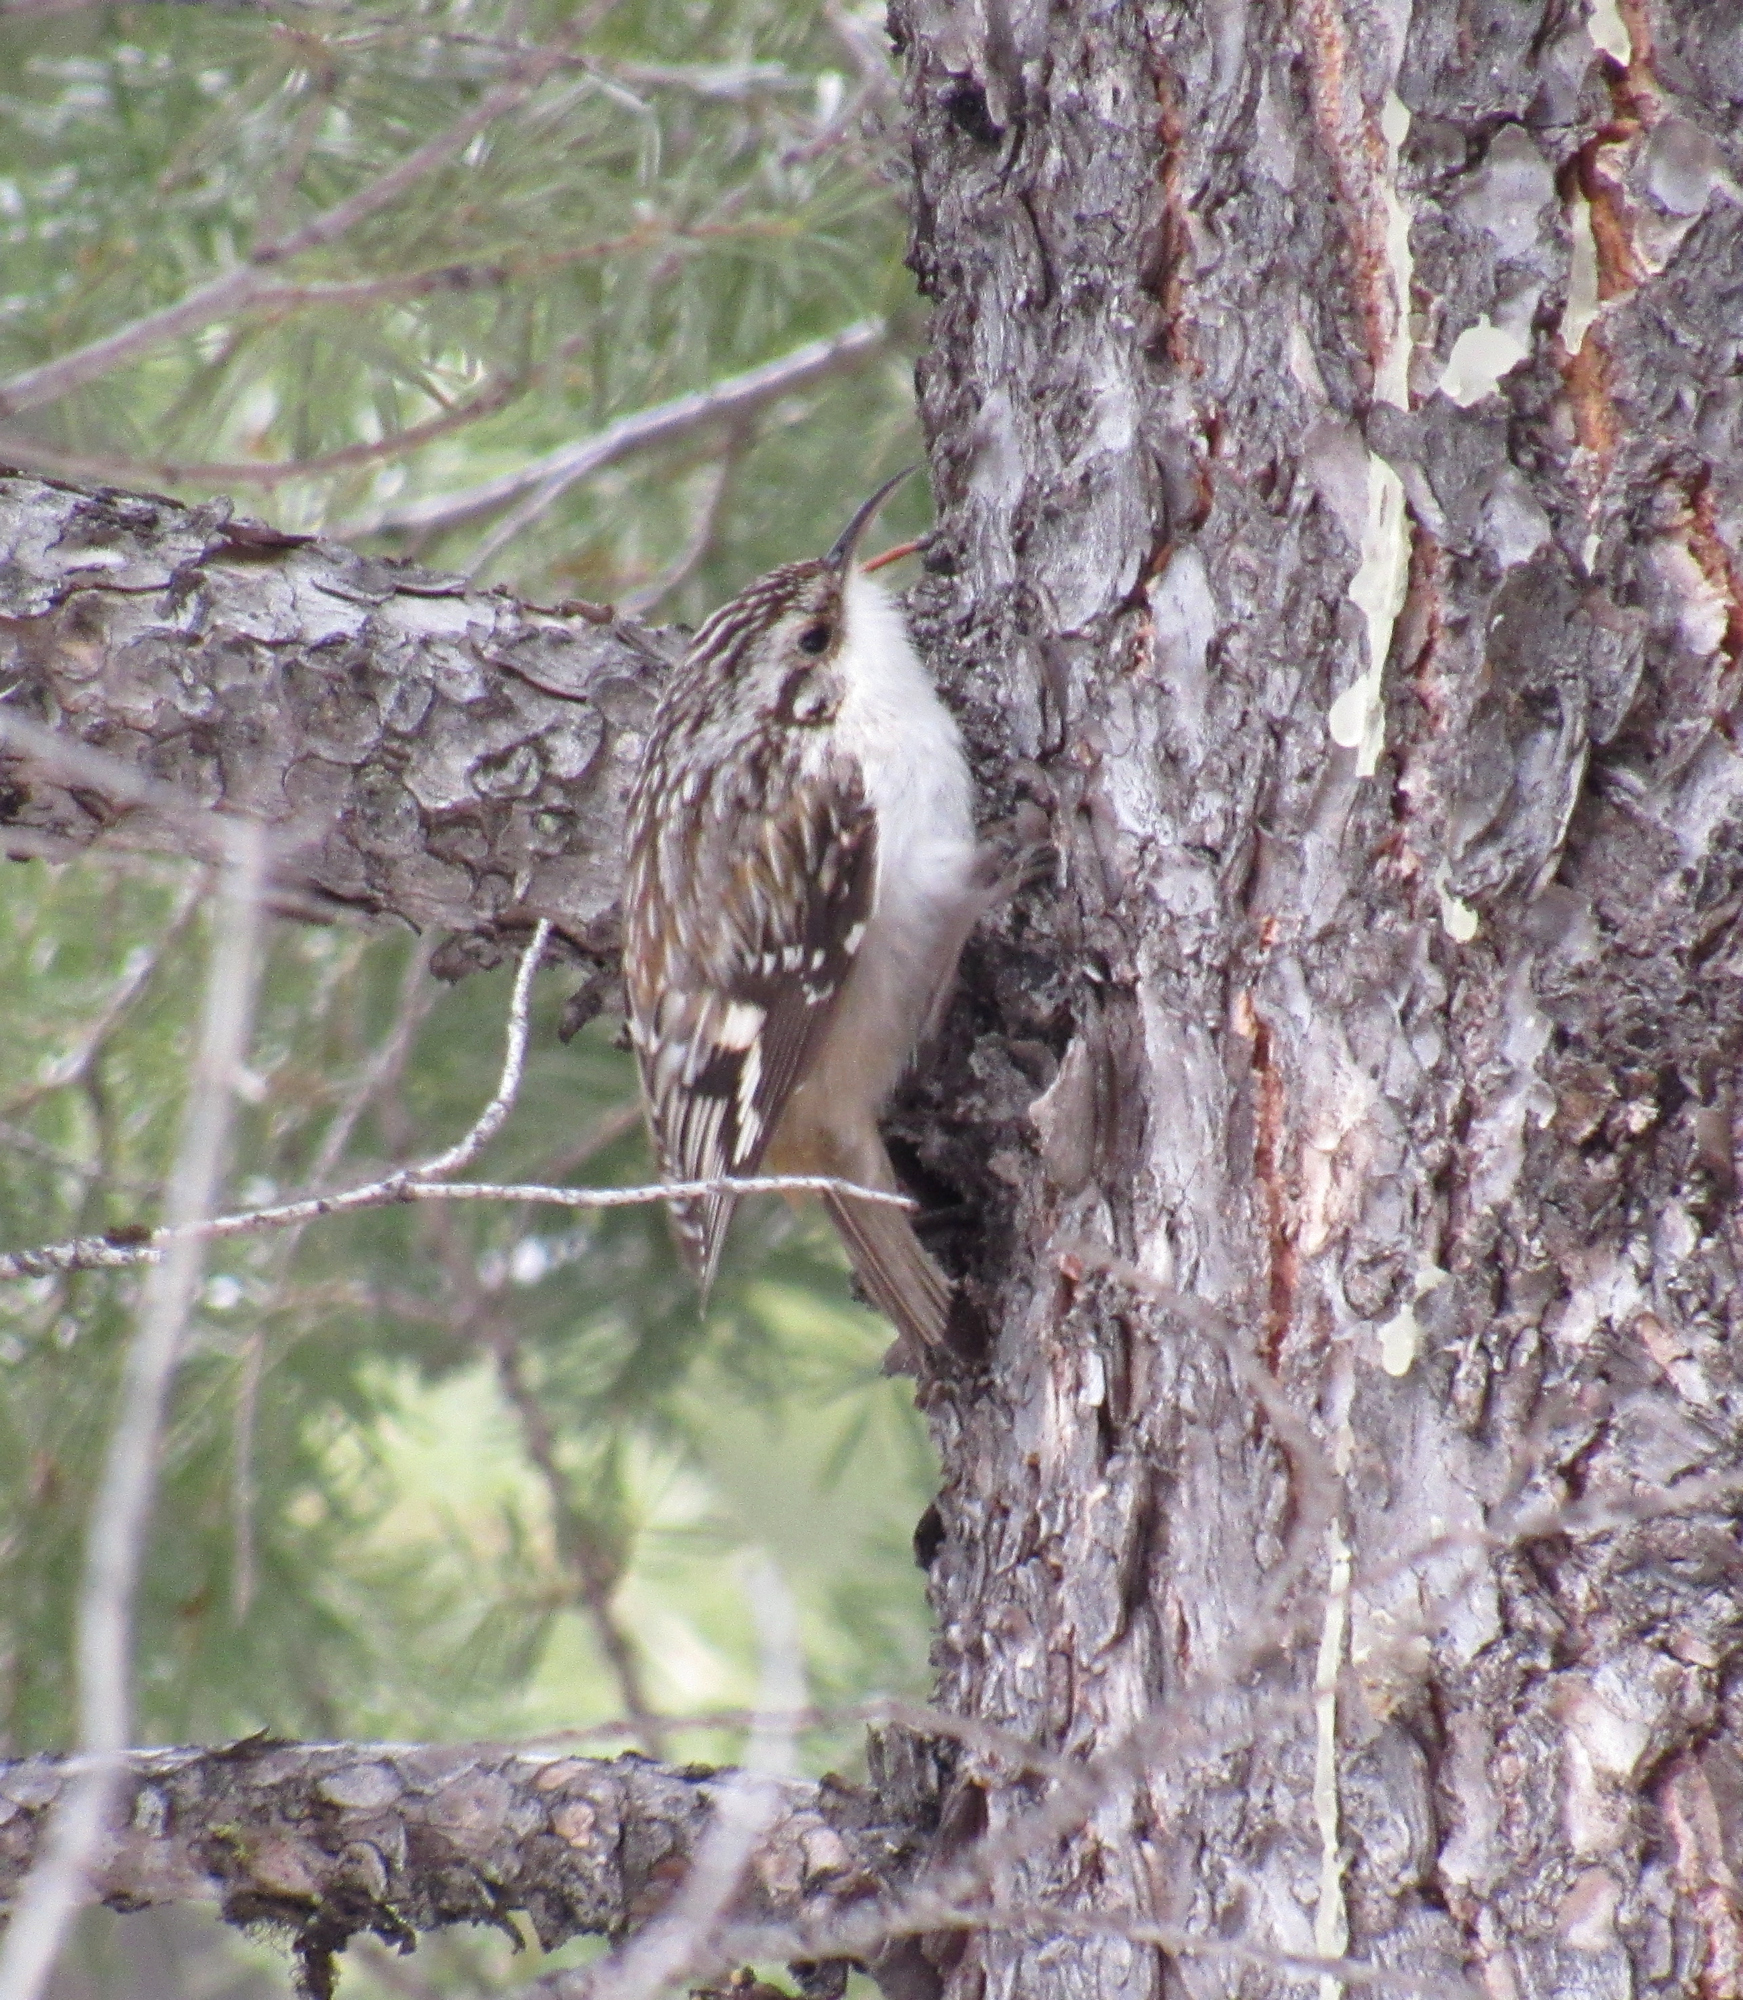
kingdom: Animalia
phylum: Chordata
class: Aves
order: Passeriformes
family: Certhiidae
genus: Certhia
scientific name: Certhia americana
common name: Brown creeper
